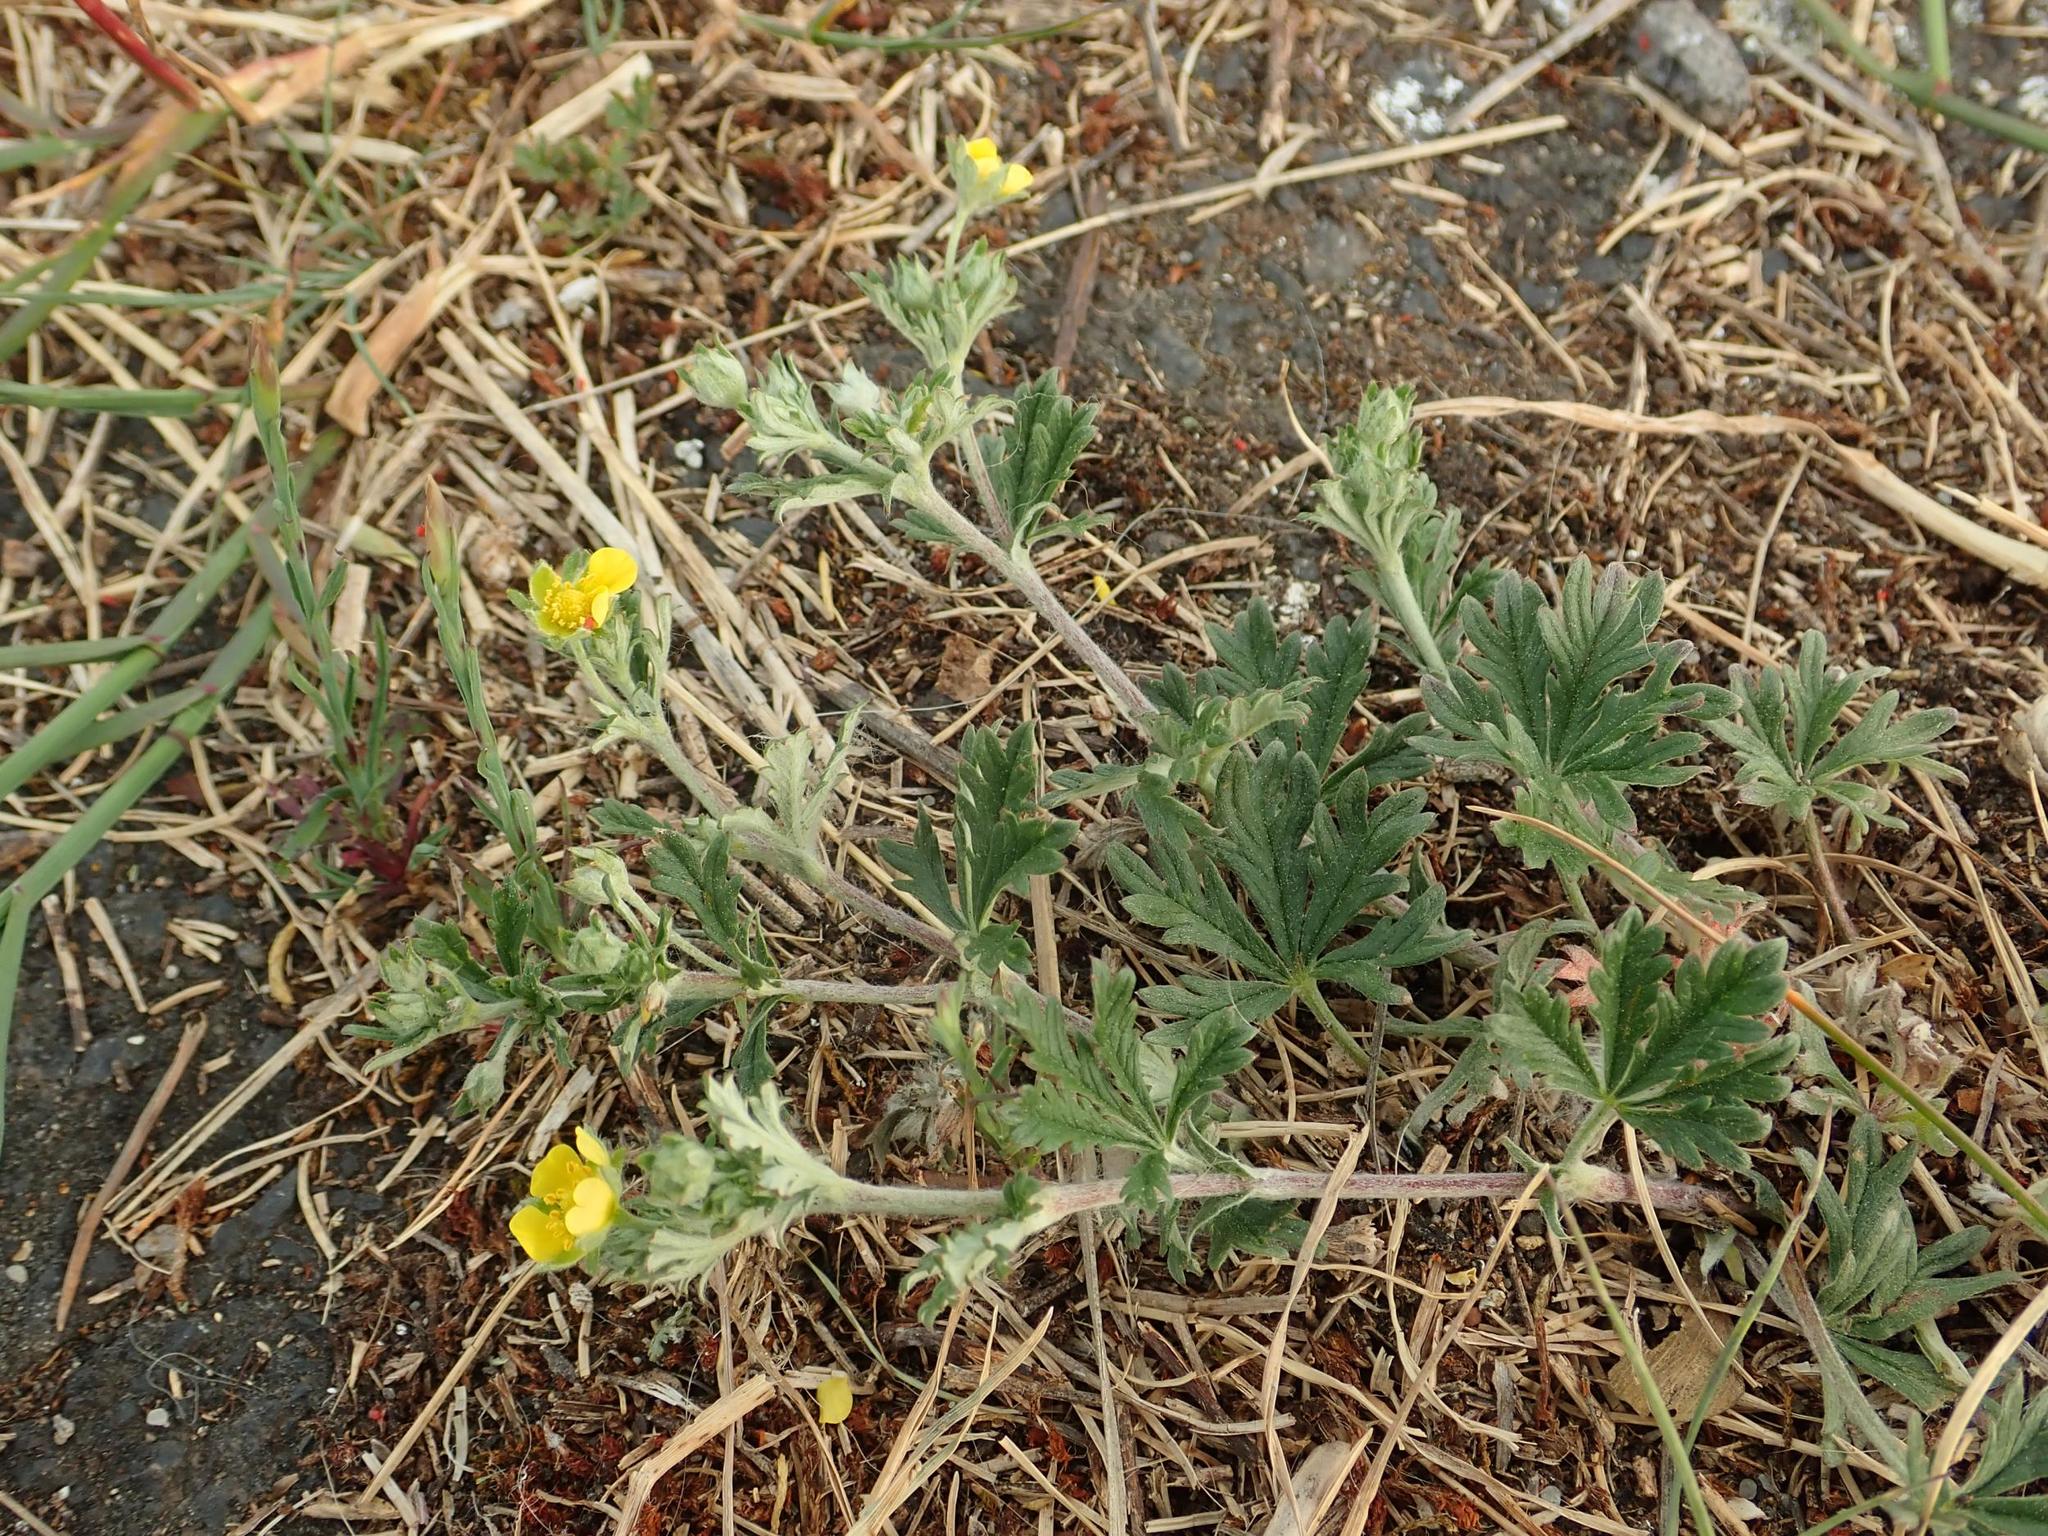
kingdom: Plantae
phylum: Tracheophyta
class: Magnoliopsida
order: Rosales
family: Rosaceae
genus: Potentilla
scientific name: Potentilla argentea
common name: Hoary cinquefoil
